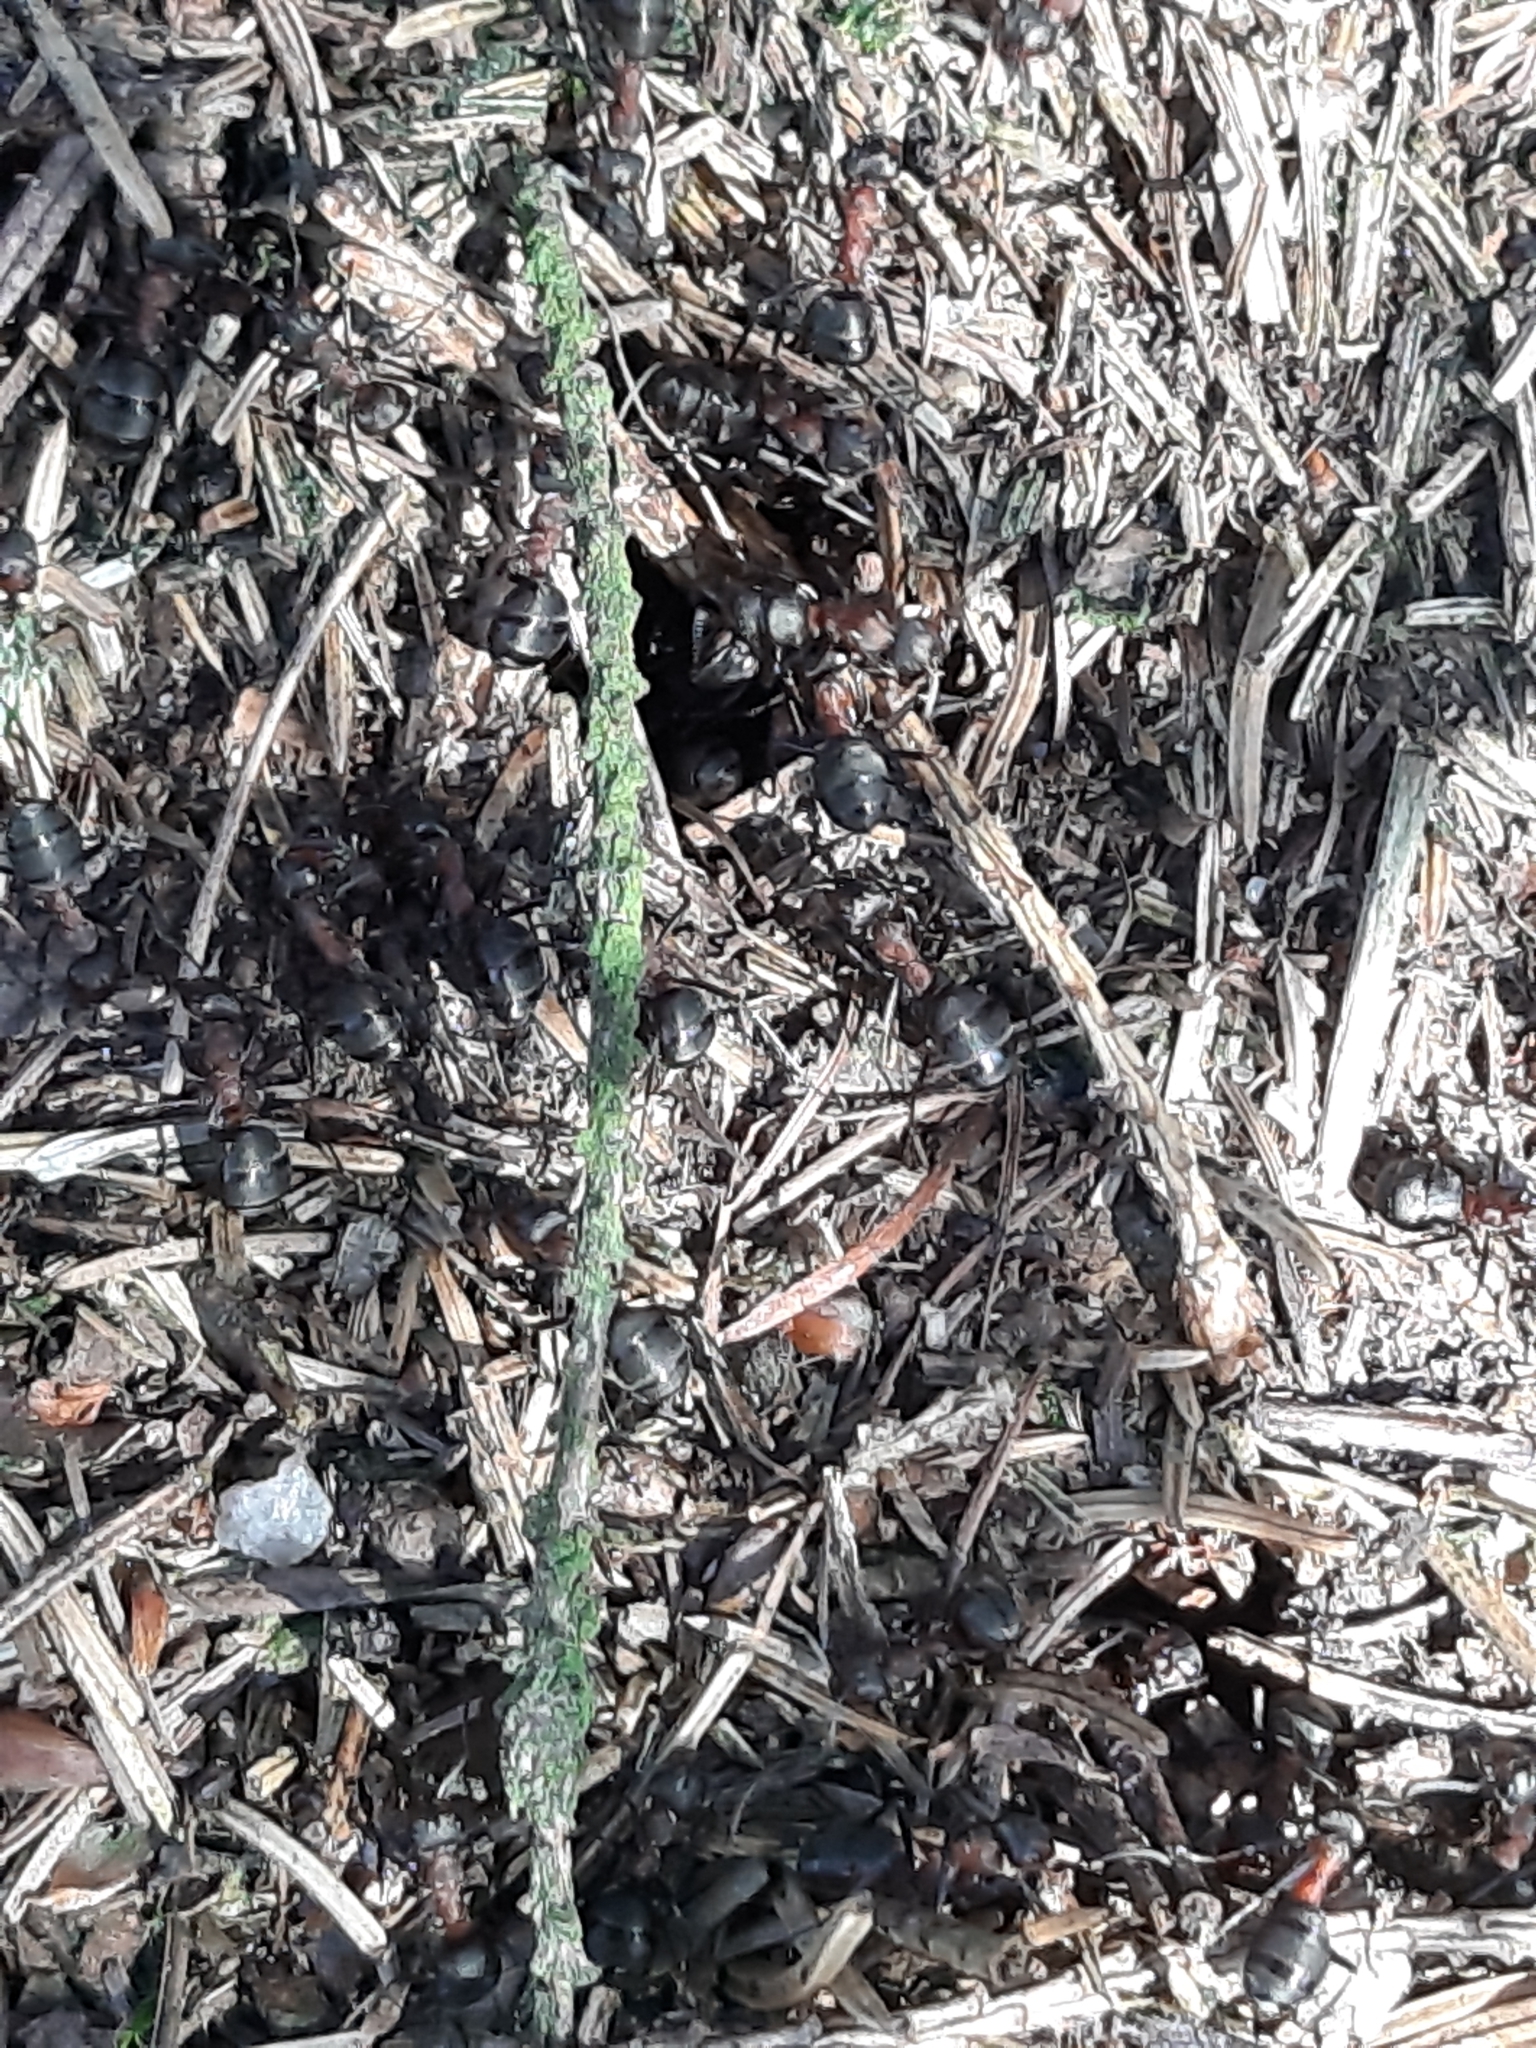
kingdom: Animalia
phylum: Arthropoda
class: Insecta
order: Hymenoptera
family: Formicidae
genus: Formica
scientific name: Formica rufa
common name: Red wood ant
